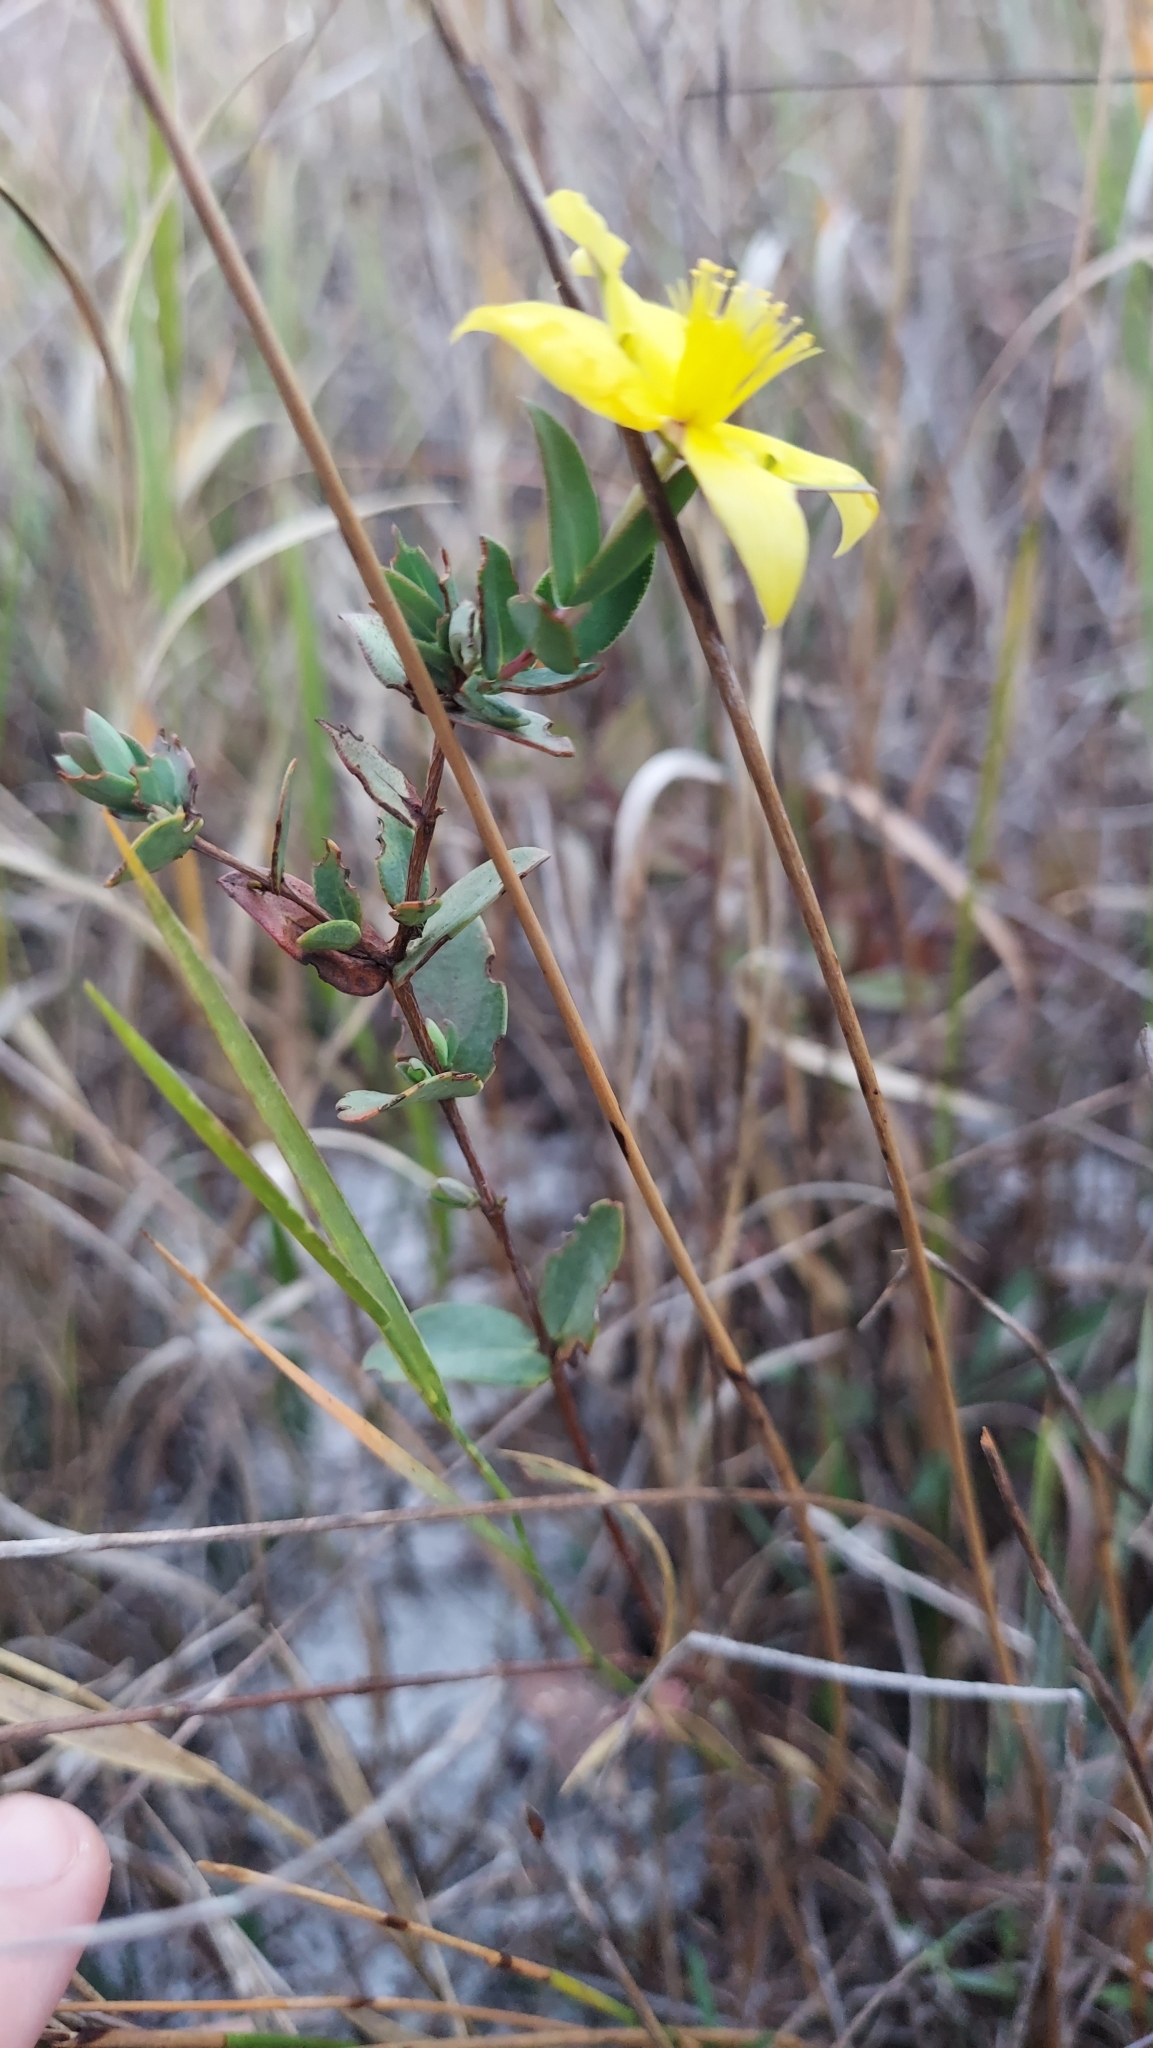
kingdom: Plantae
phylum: Tracheophyta
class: Magnoliopsida
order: Malpighiales
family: Hypericaceae
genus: Hypericum
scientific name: Hypericum tetrapetalum
